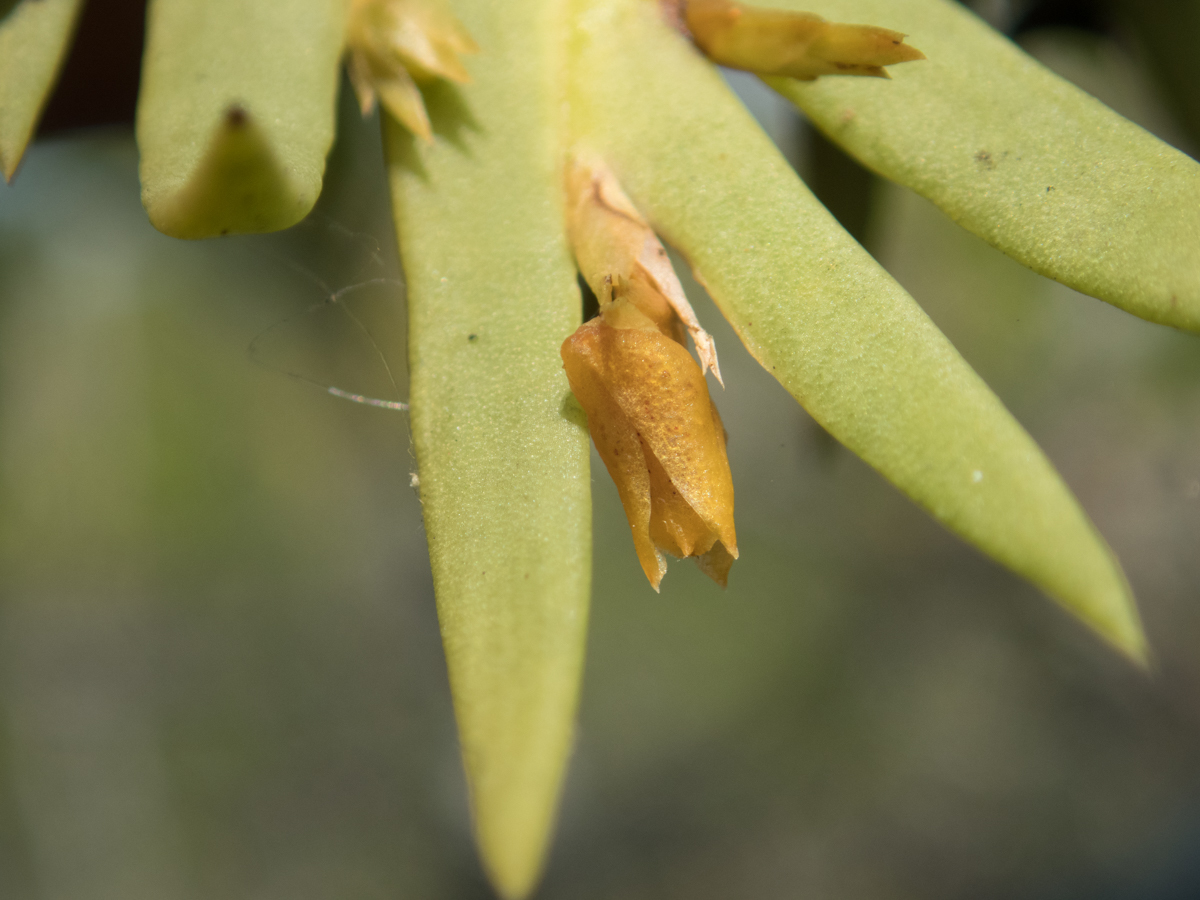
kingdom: Plantae
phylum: Tracheophyta
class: Liliopsida
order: Asparagales
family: Orchidaceae
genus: Oxystophyllum
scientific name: Oxystophyllum carnosum
